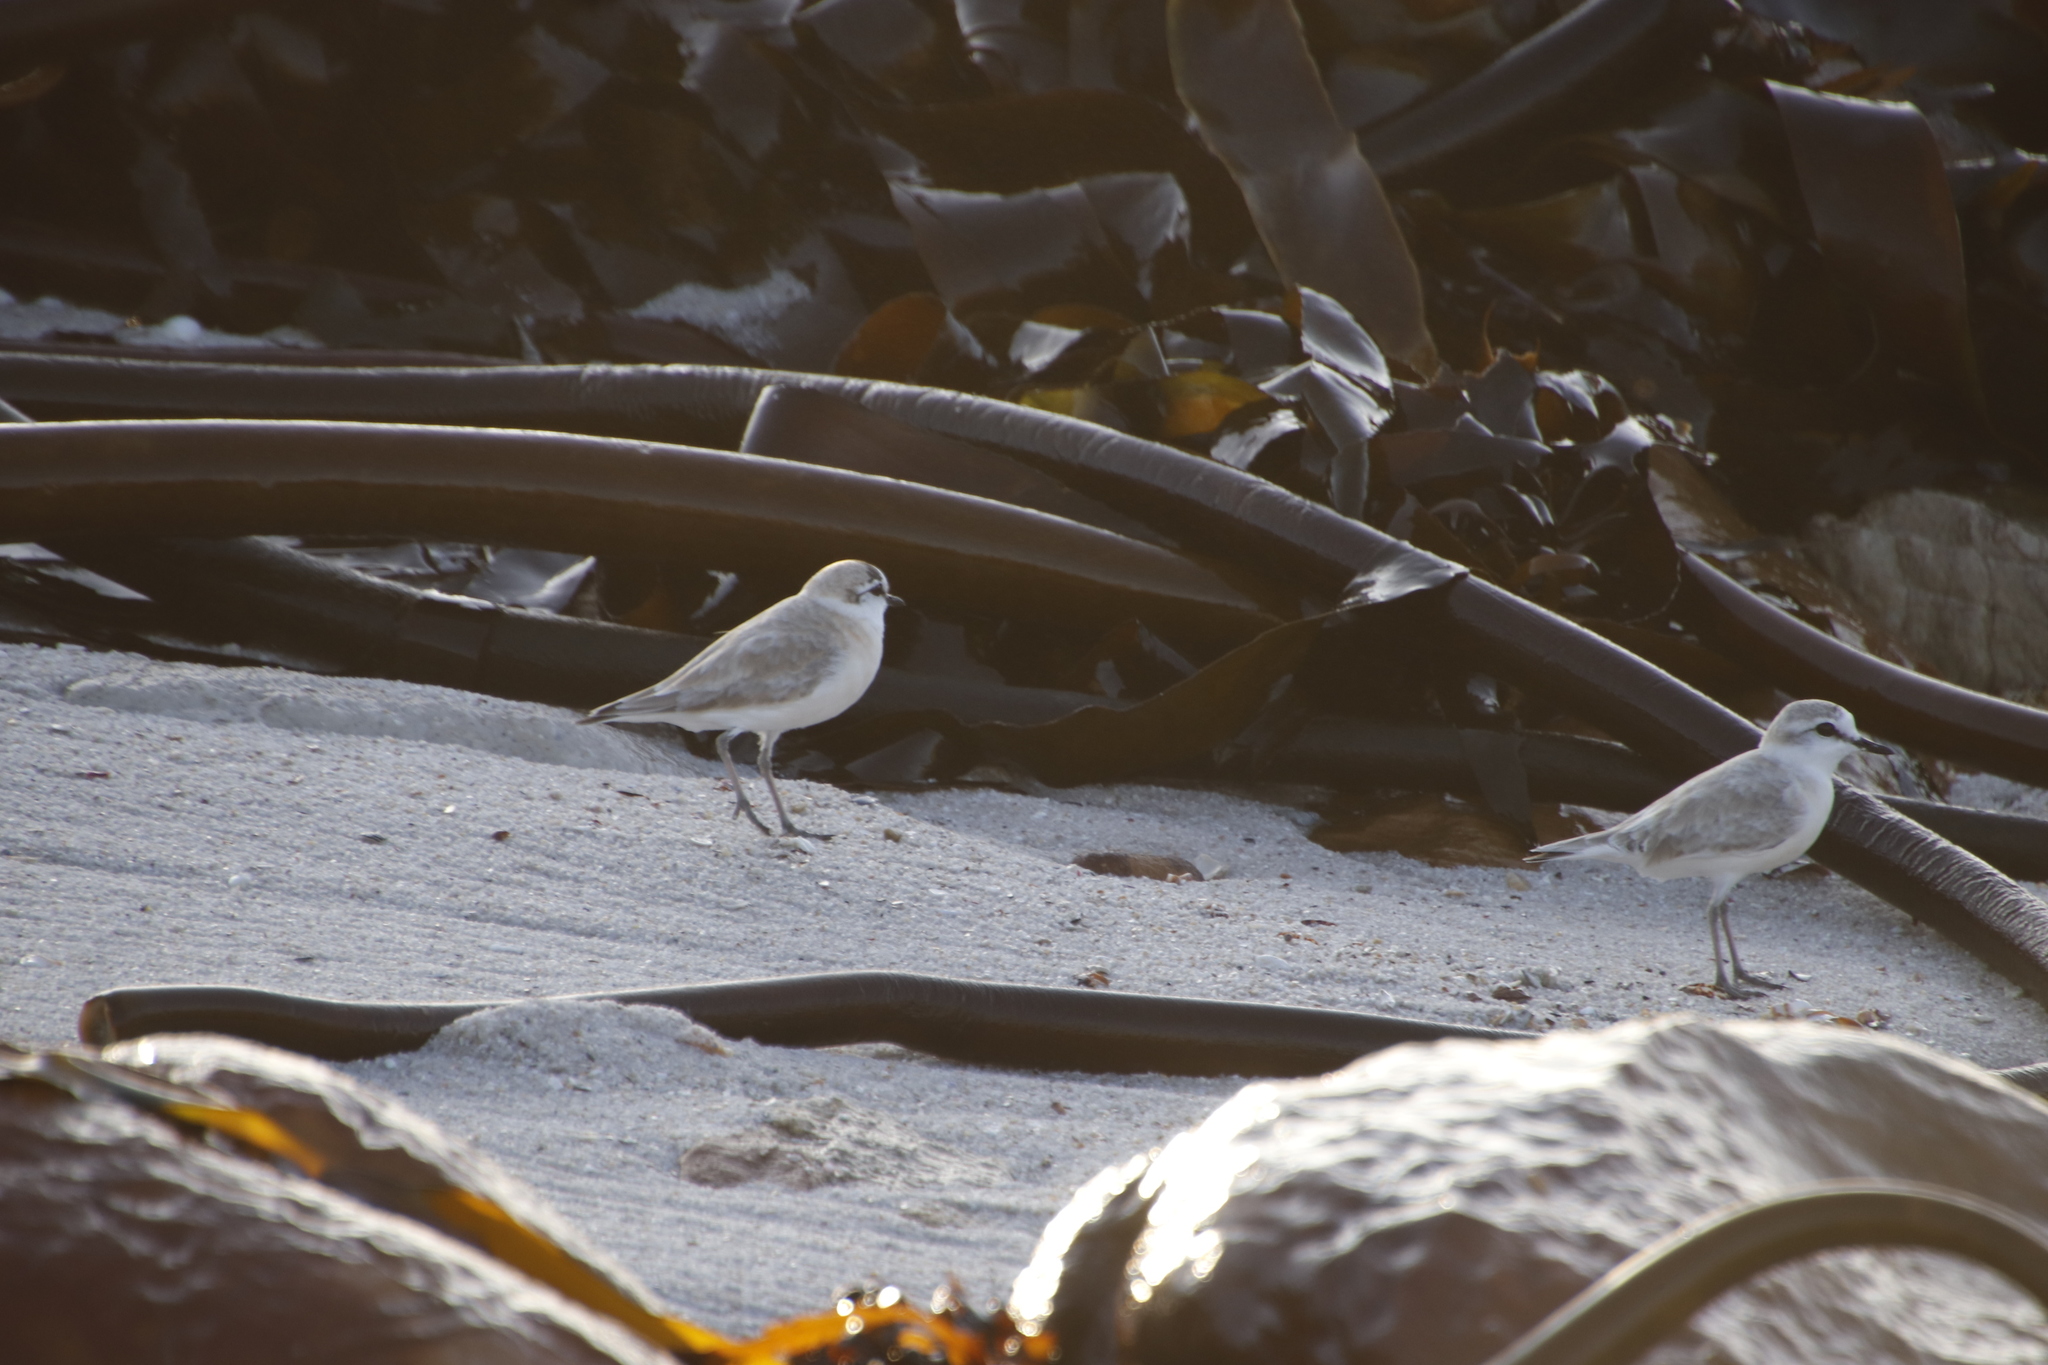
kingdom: Animalia
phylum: Chordata
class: Aves
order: Charadriiformes
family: Charadriidae
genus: Anarhynchus
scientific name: Anarhynchus
